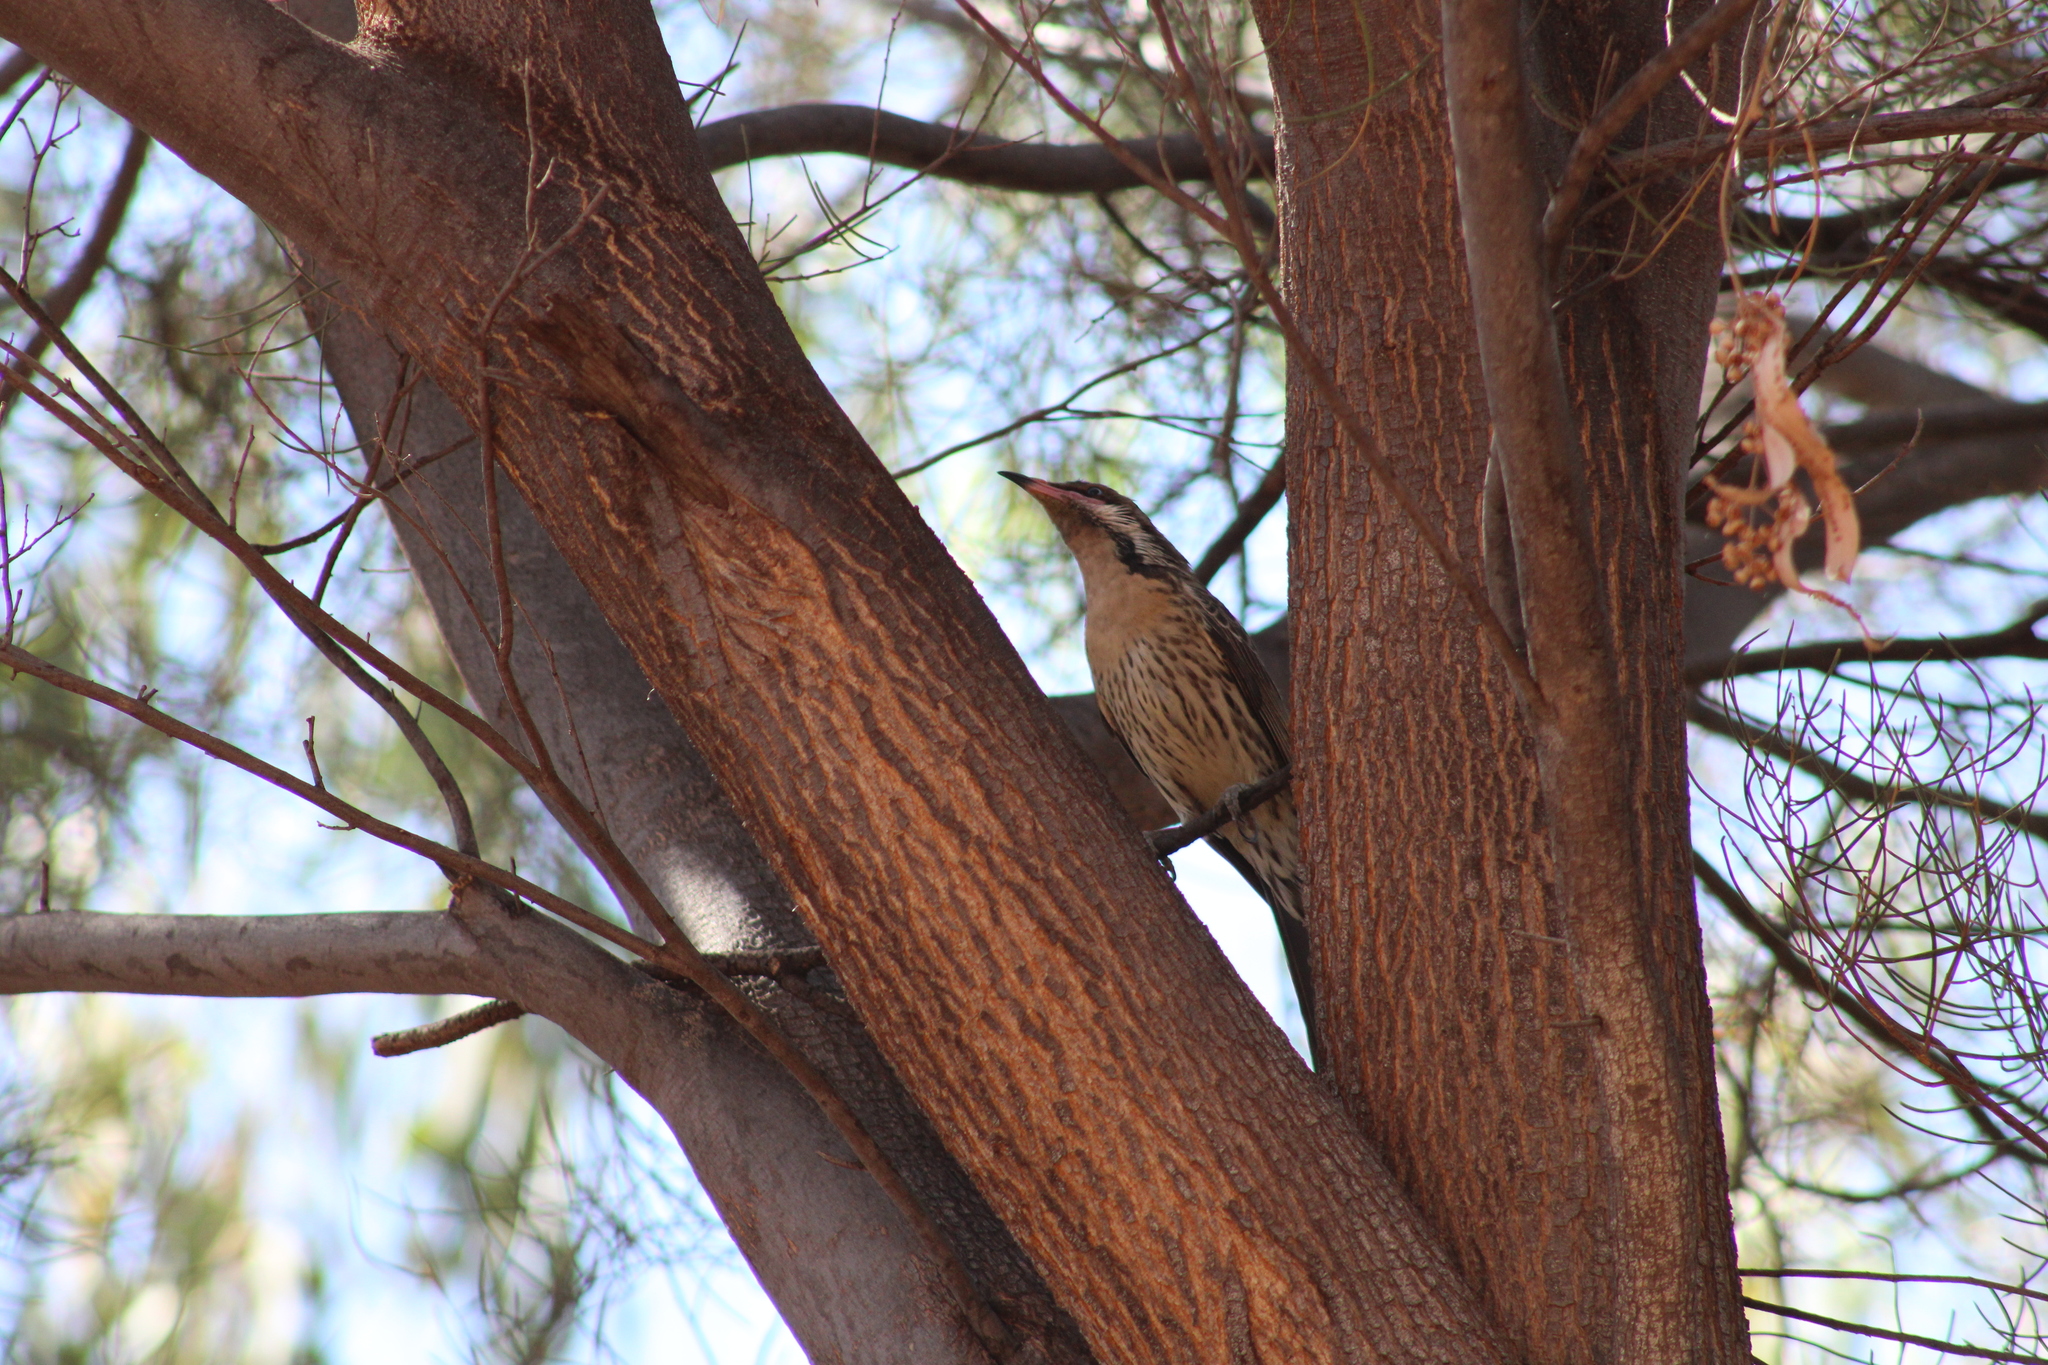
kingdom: Animalia
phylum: Chordata
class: Aves
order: Passeriformes
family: Meliphagidae
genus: Acanthagenys
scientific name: Acanthagenys rufogularis
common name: Spiny-cheeked honeyeater
